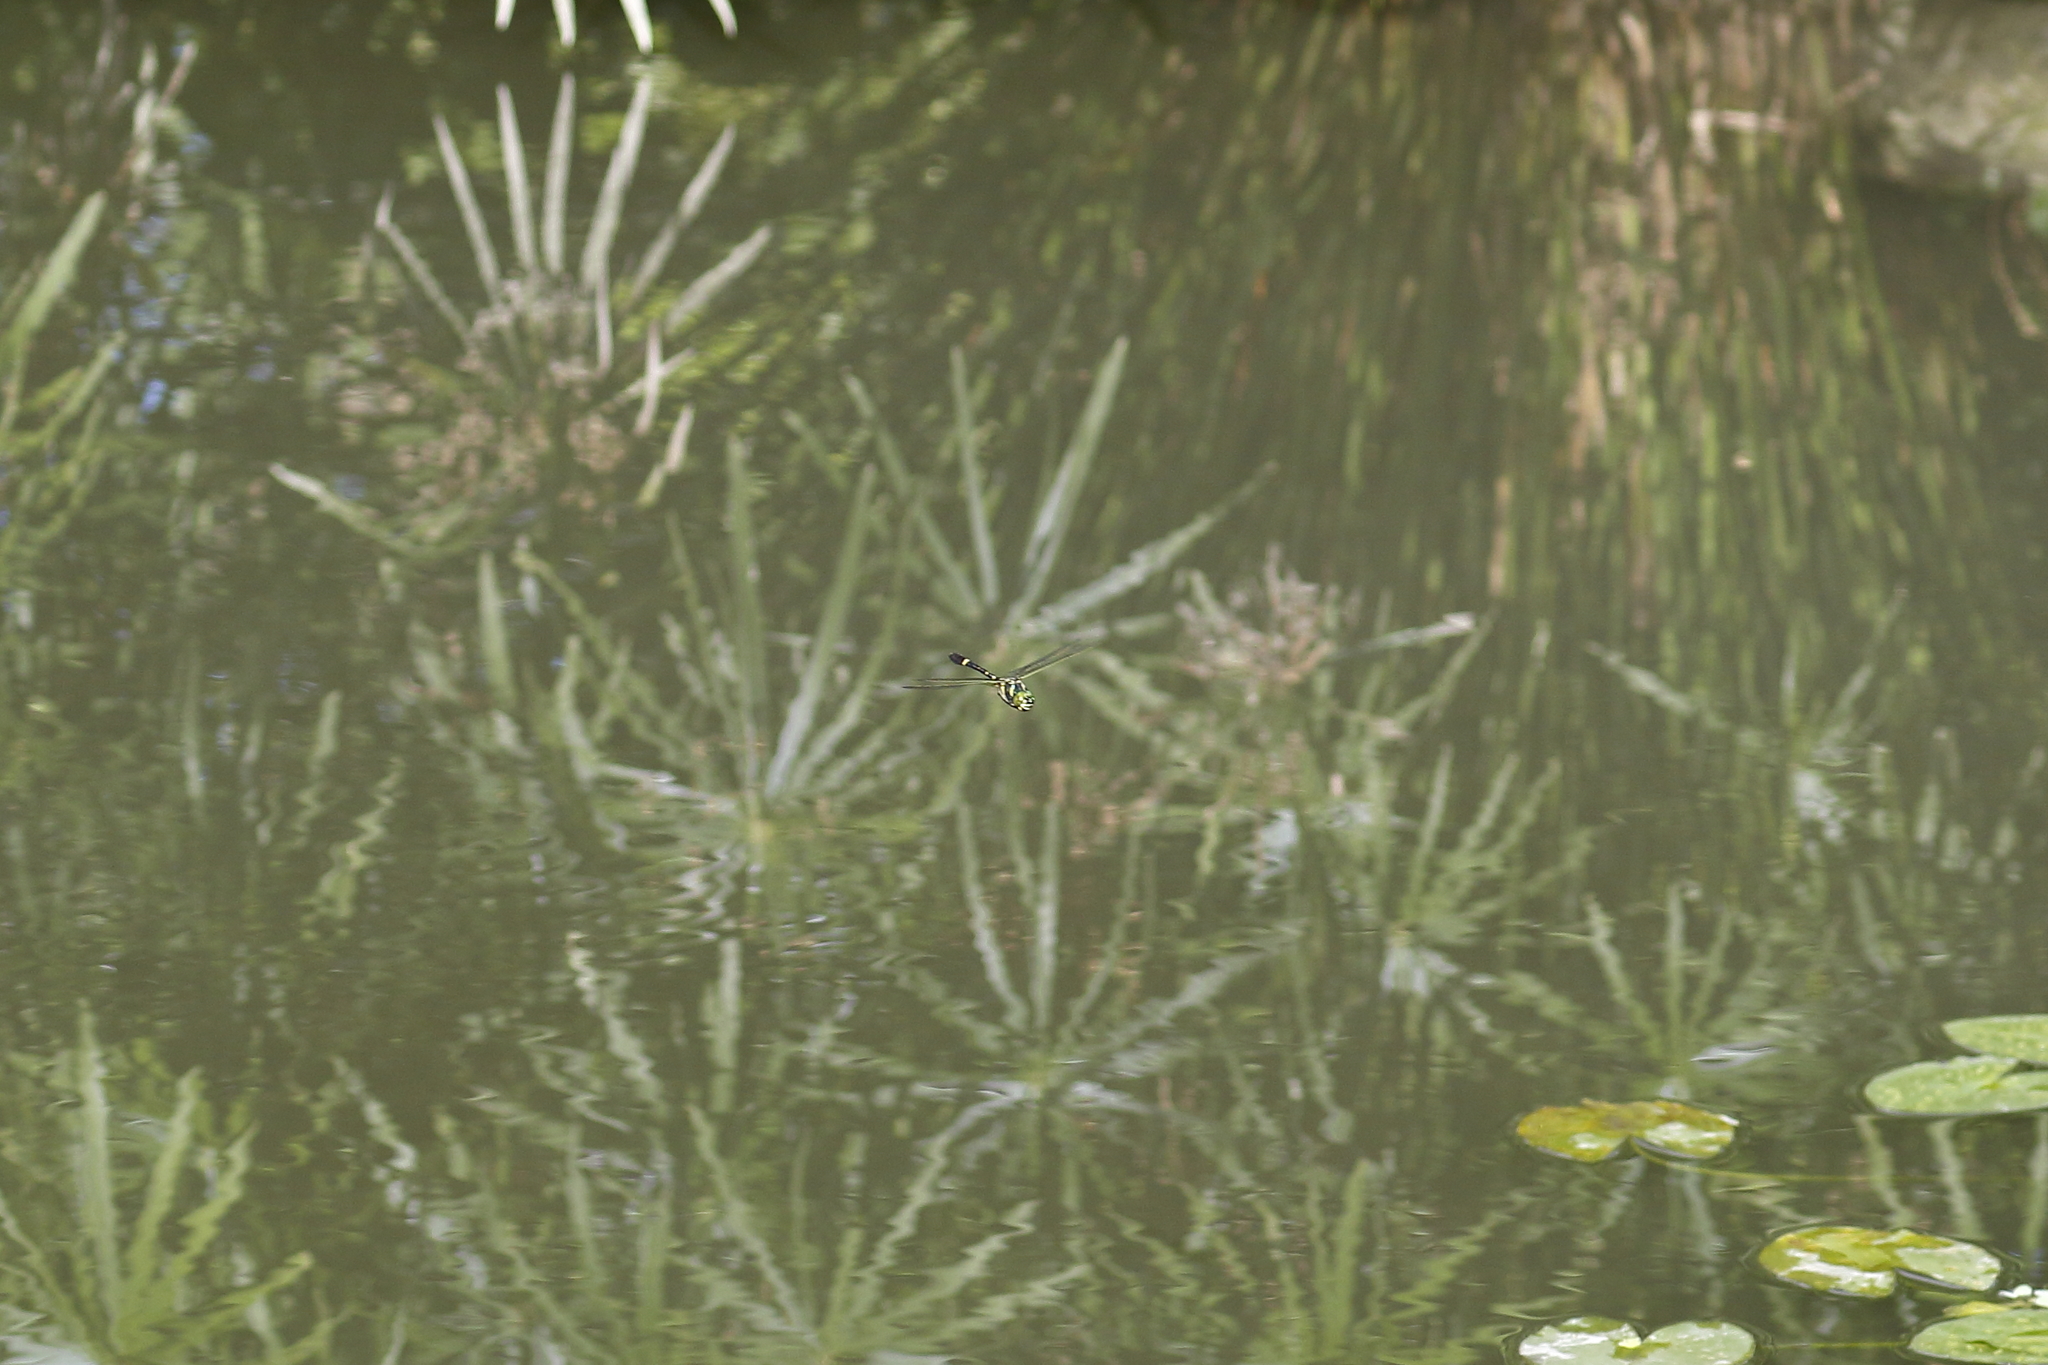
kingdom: Animalia
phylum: Arthropoda
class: Insecta
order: Odonata
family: Macromiidae
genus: Epophthalmia
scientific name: Epophthalmia elegans
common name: Regal pond cruiser
